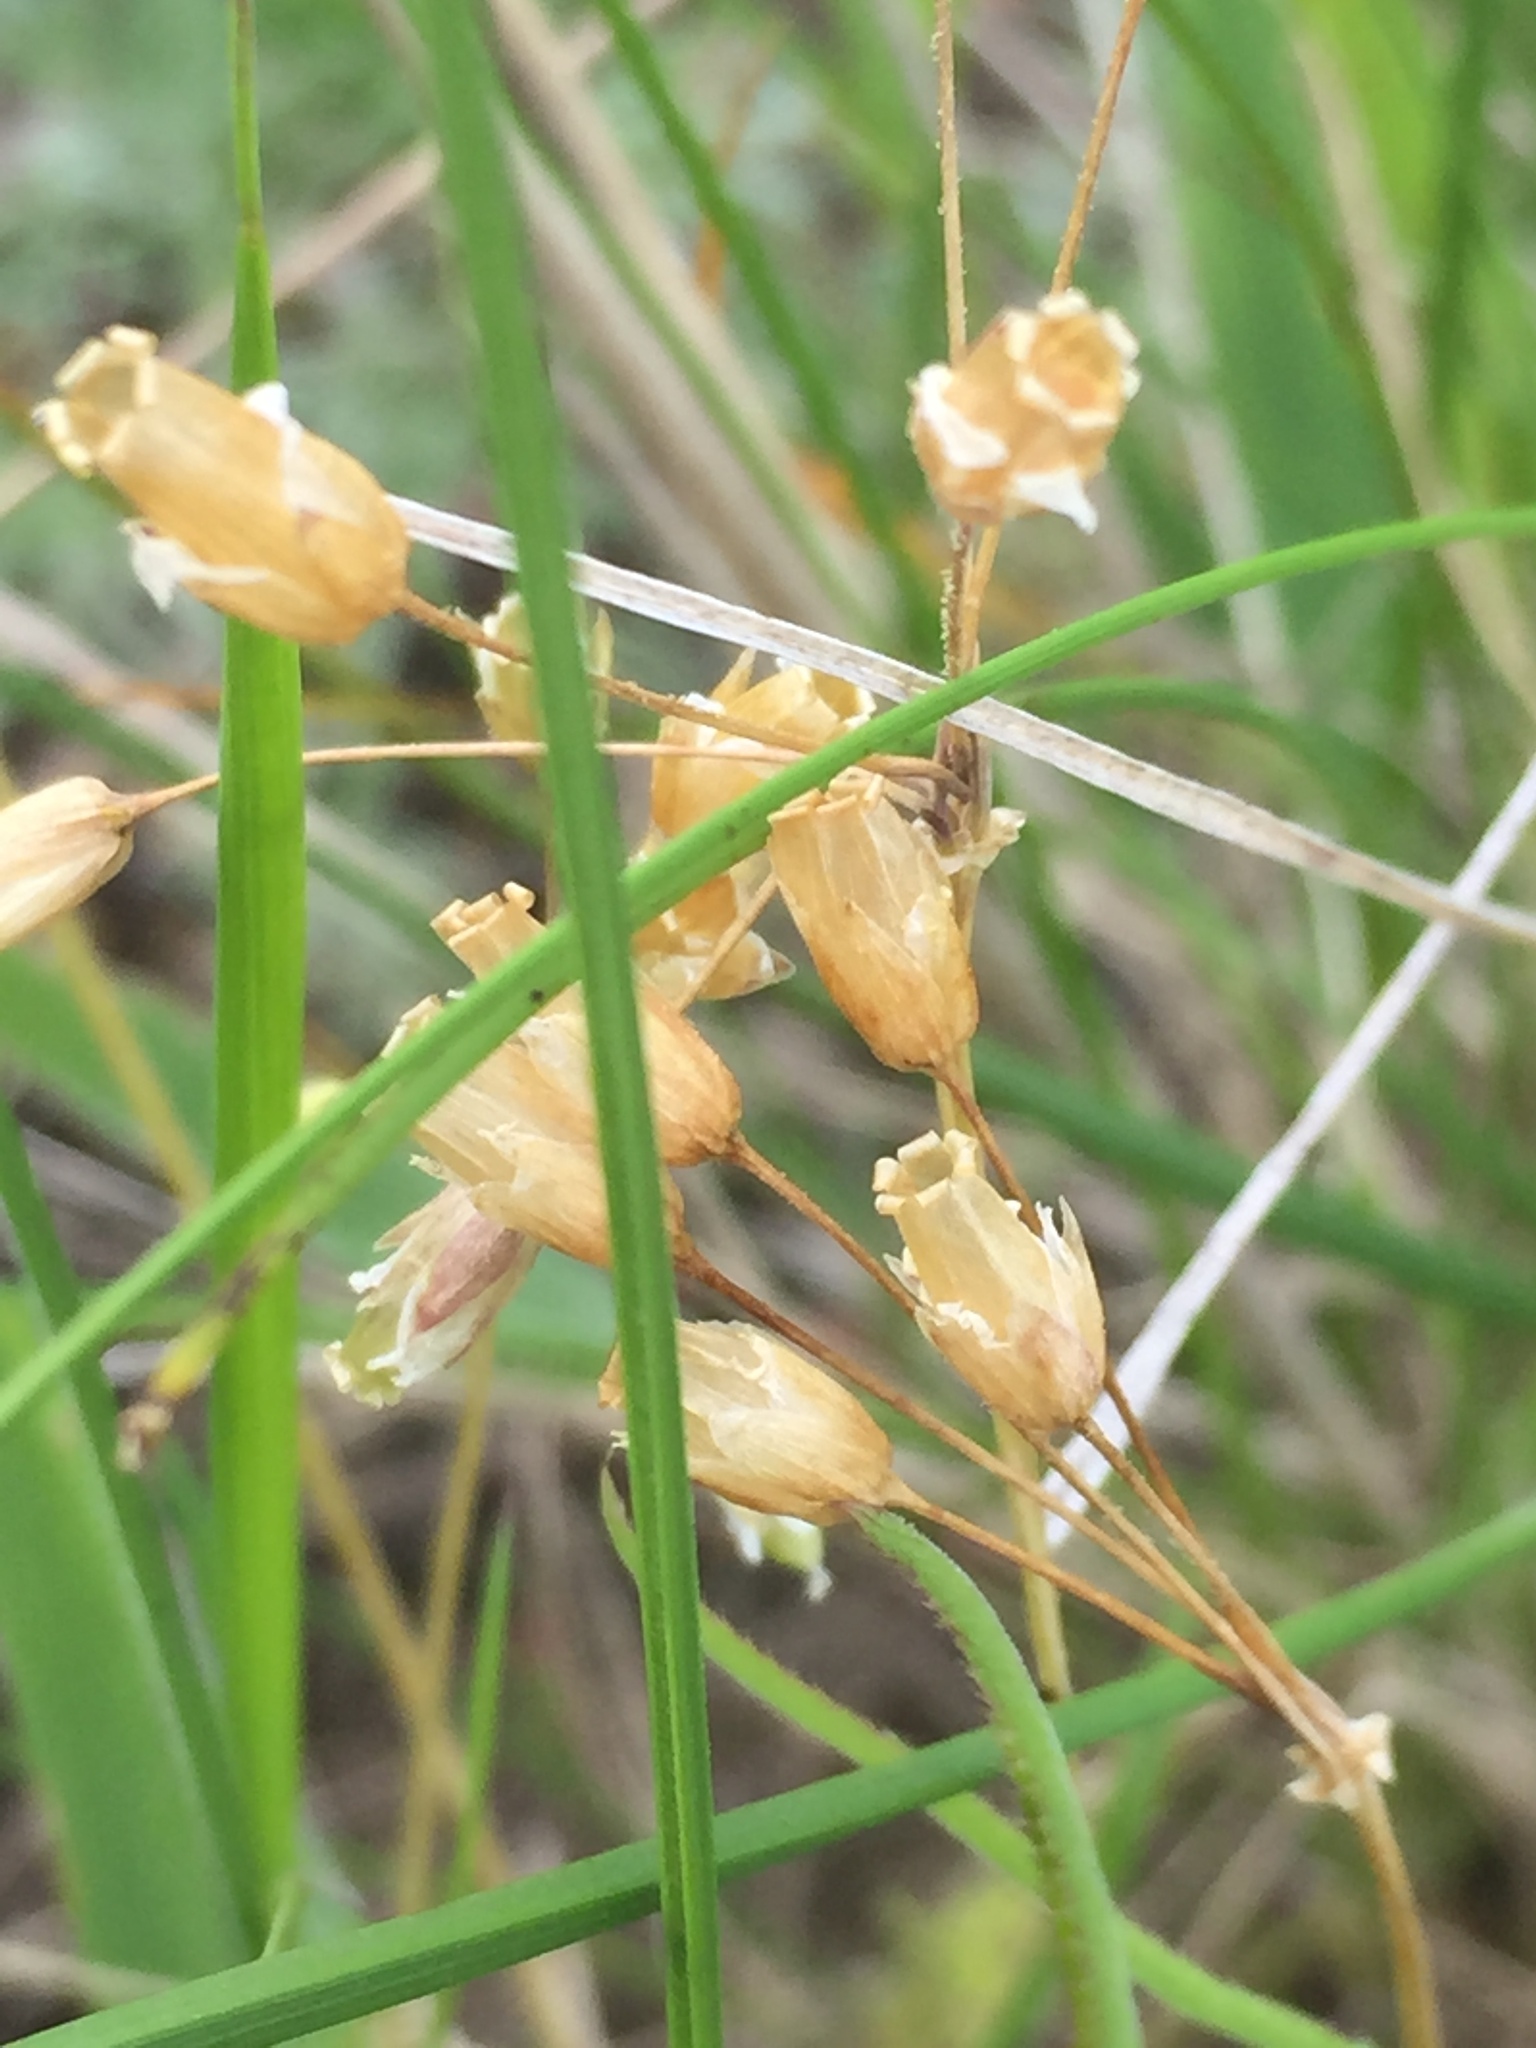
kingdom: Plantae
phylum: Tracheophyta
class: Magnoliopsida
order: Caryophyllales
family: Caryophyllaceae
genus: Holosteum
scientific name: Holosteum umbellatum
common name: Jagged chickweed
